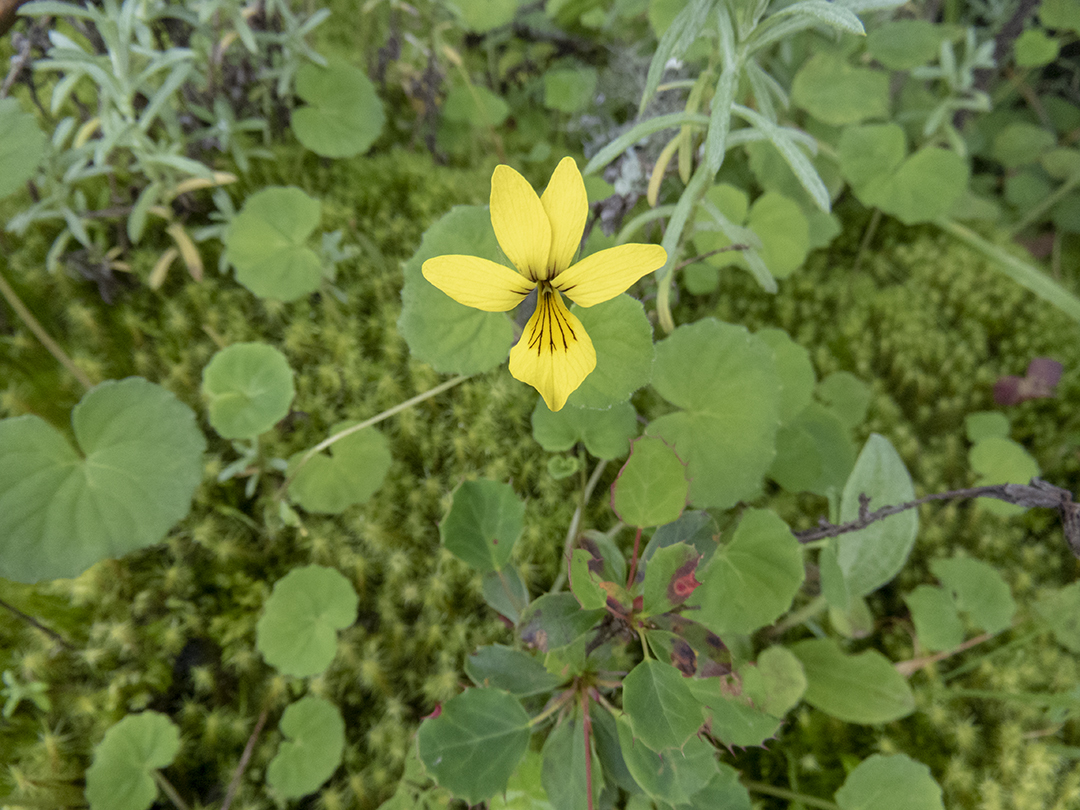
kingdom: Plantae
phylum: Tracheophyta
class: Magnoliopsida
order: Malpighiales
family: Violaceae
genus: Viola
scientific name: Viola biflora
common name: Alpine yellow violet
